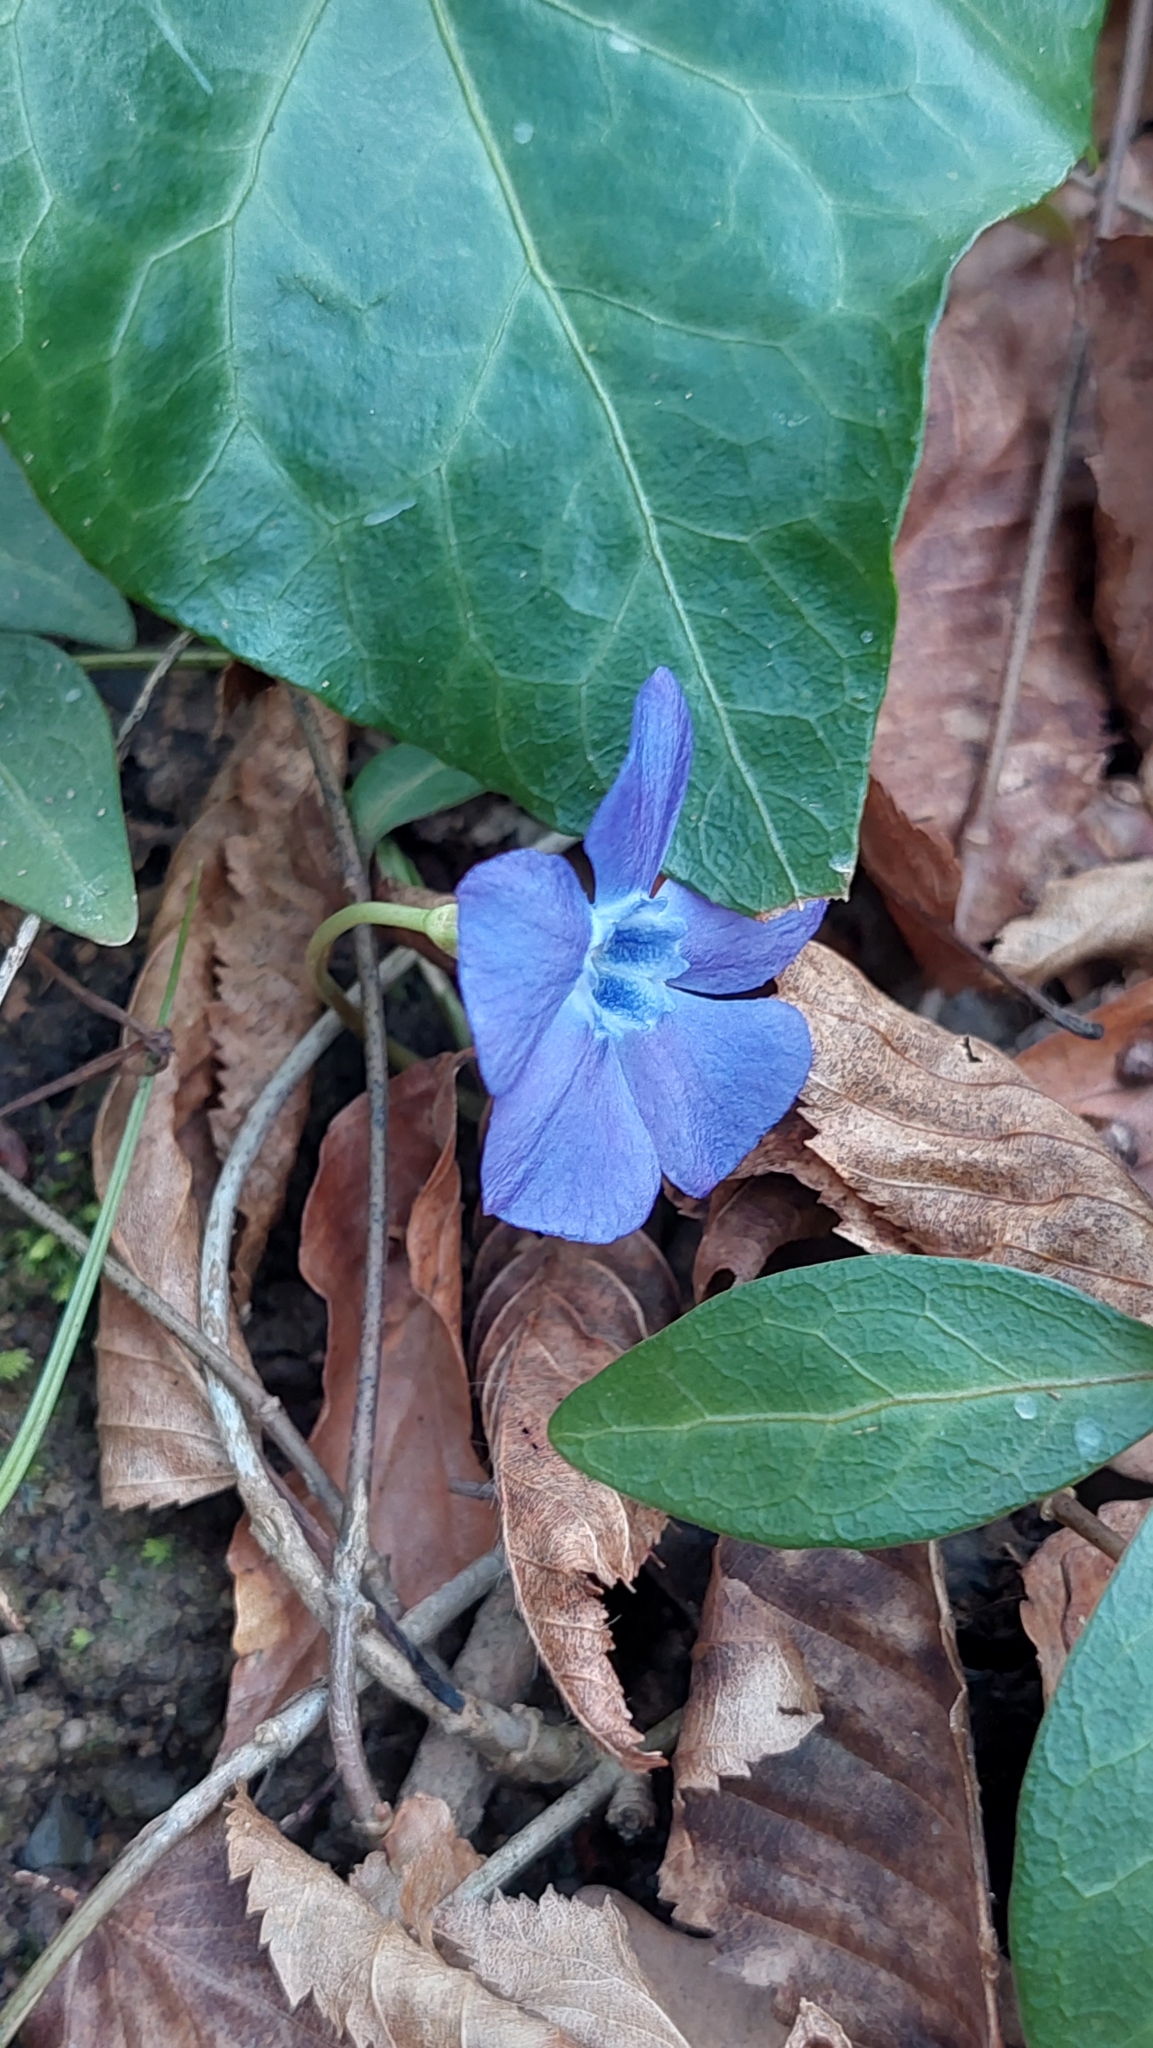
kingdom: Plantae
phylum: Tracheophyta
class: Magnoliopsida
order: Gentianales
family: Apocynaceae
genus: Vinca
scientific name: Vinca minor
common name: Lesser periwinkle
